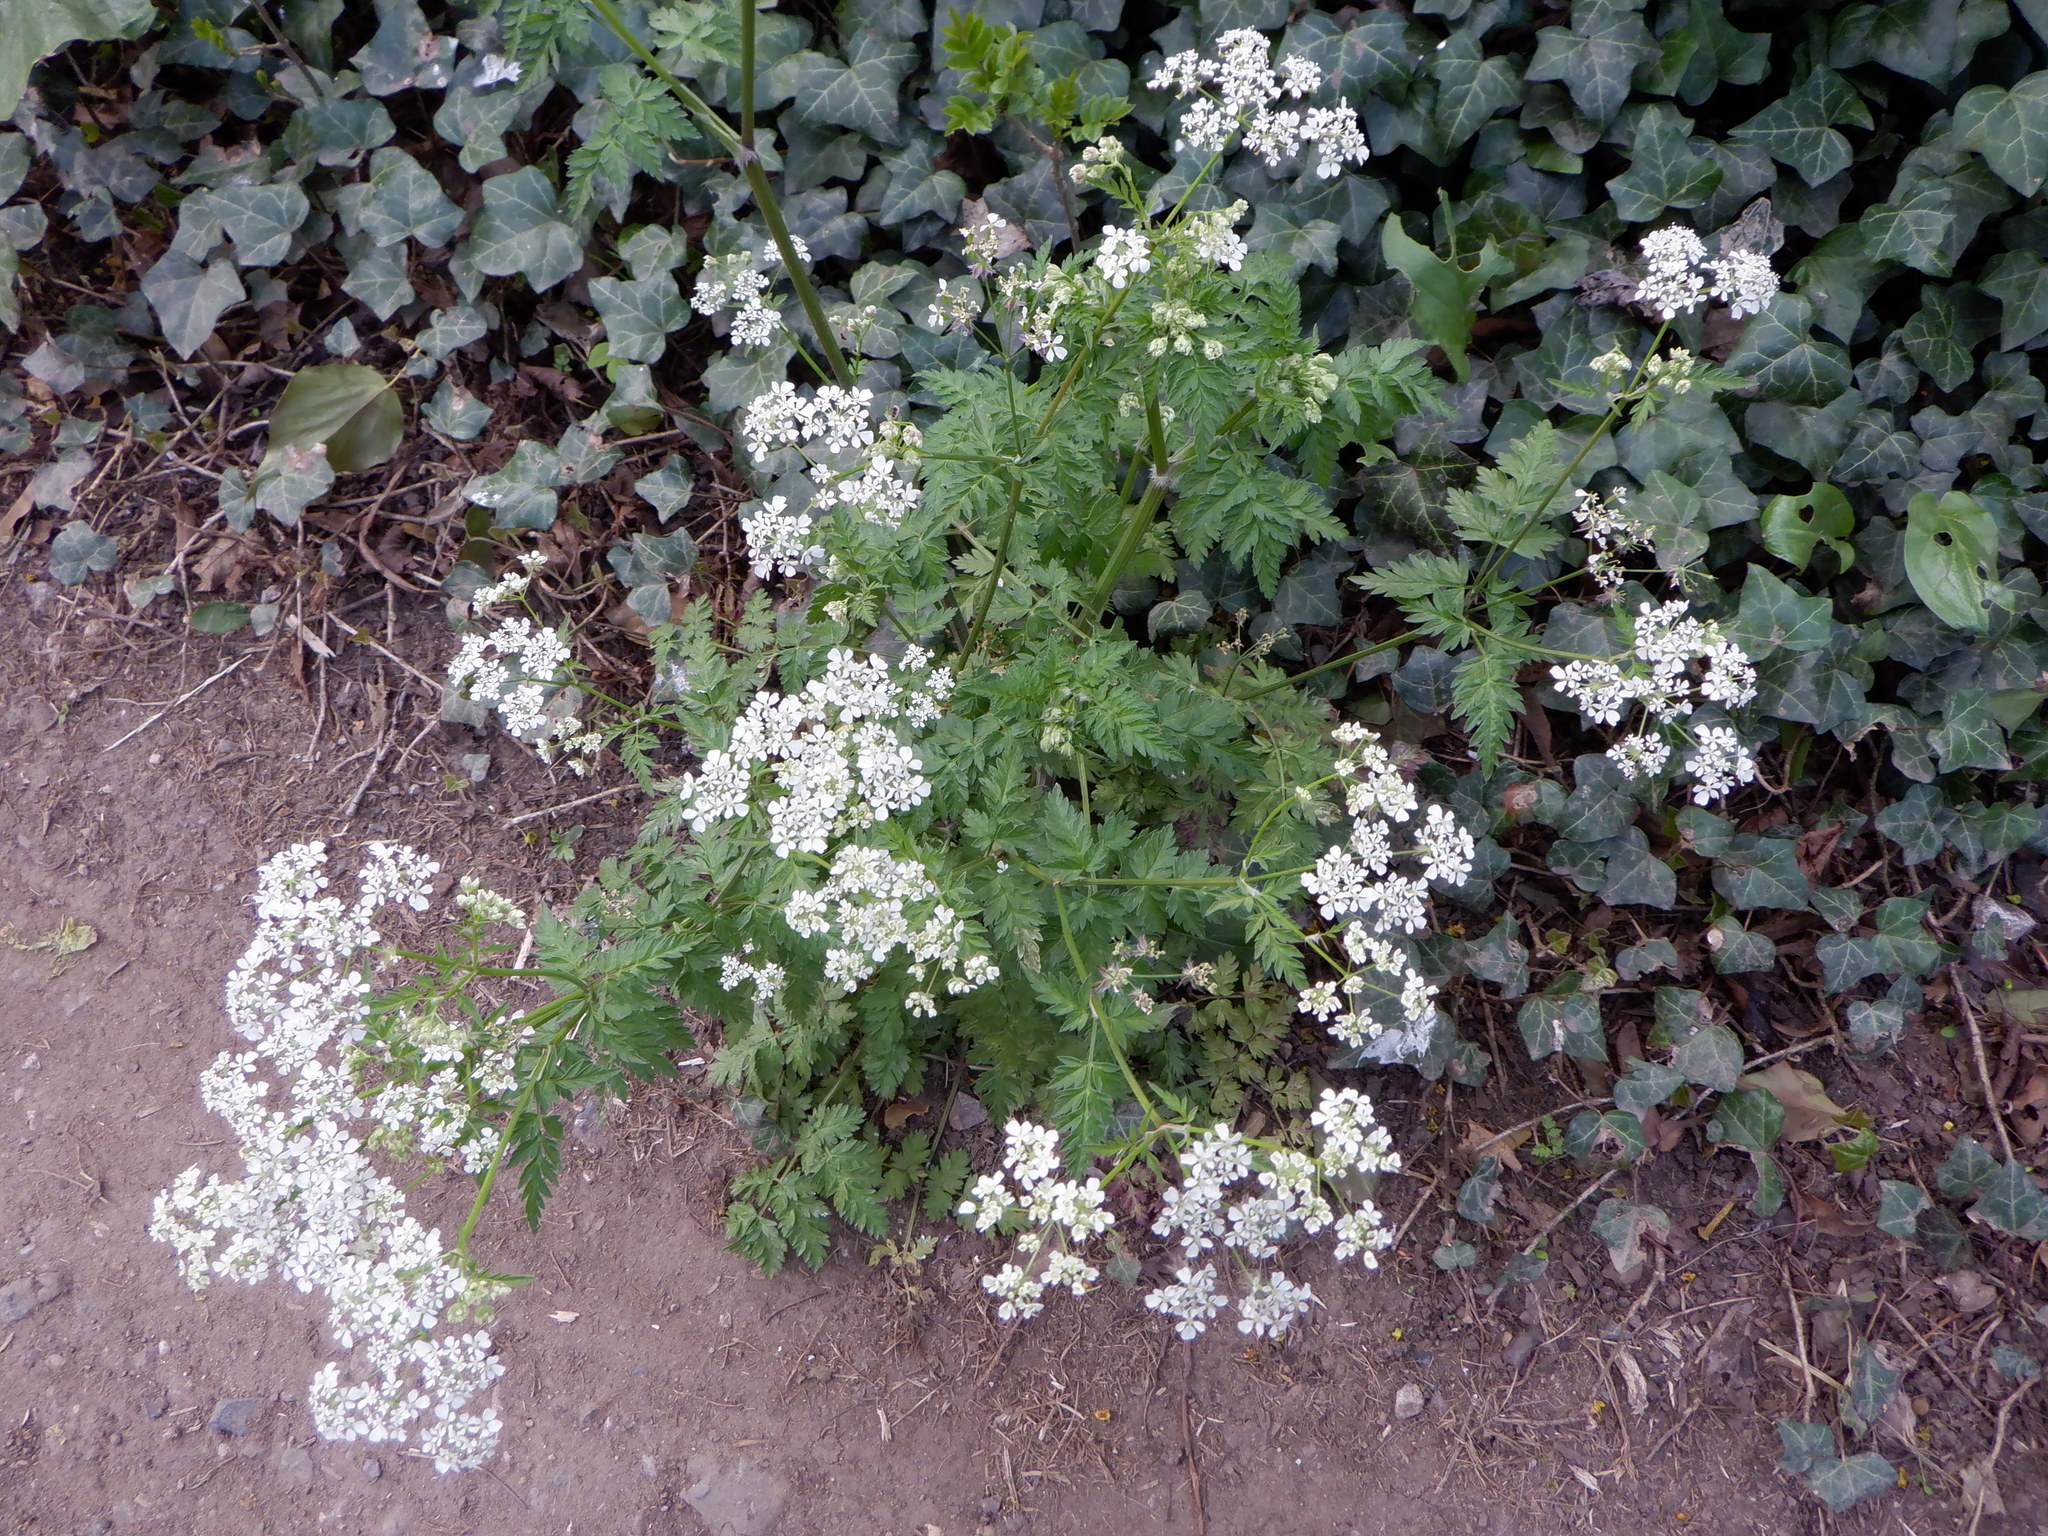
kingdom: Plantae
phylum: Tracheophyta
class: Magnoliopsida
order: Apiales
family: Apiaceae
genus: Anthriscus
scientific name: Anthriscus sylvestris
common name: Cow parsley
